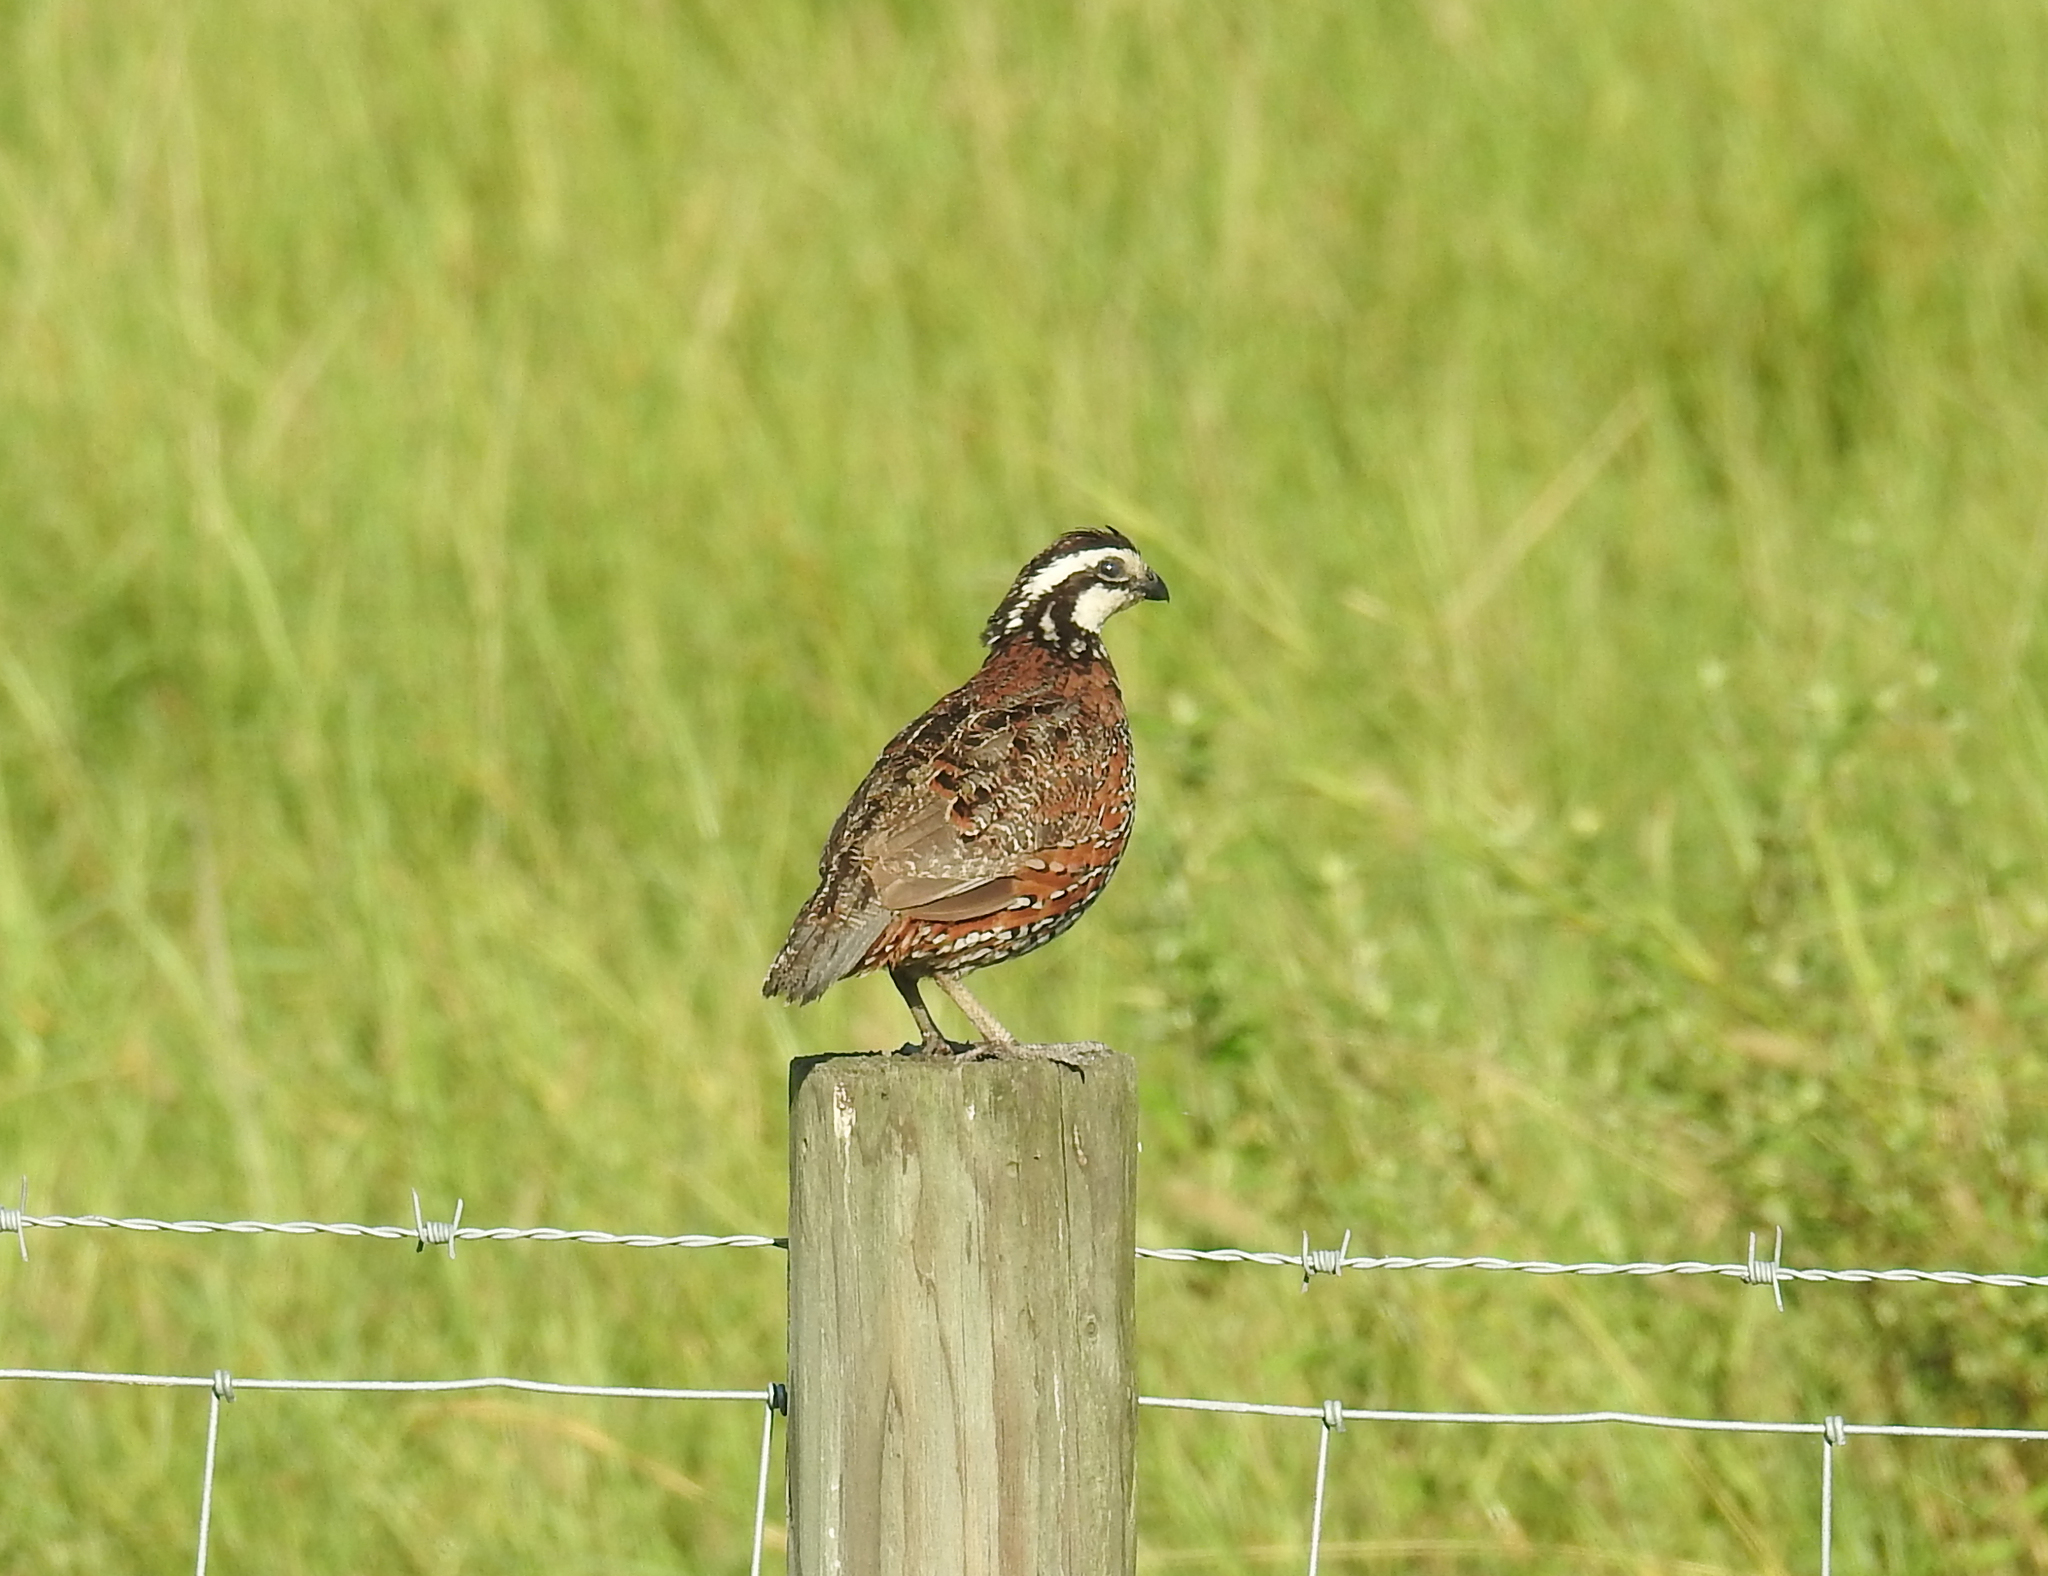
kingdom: Animalia
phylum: Chordata
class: Aves
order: Galliformes
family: Odontophoridae
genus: Colinus
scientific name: Colinus virginianus
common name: Northern bobwhite
